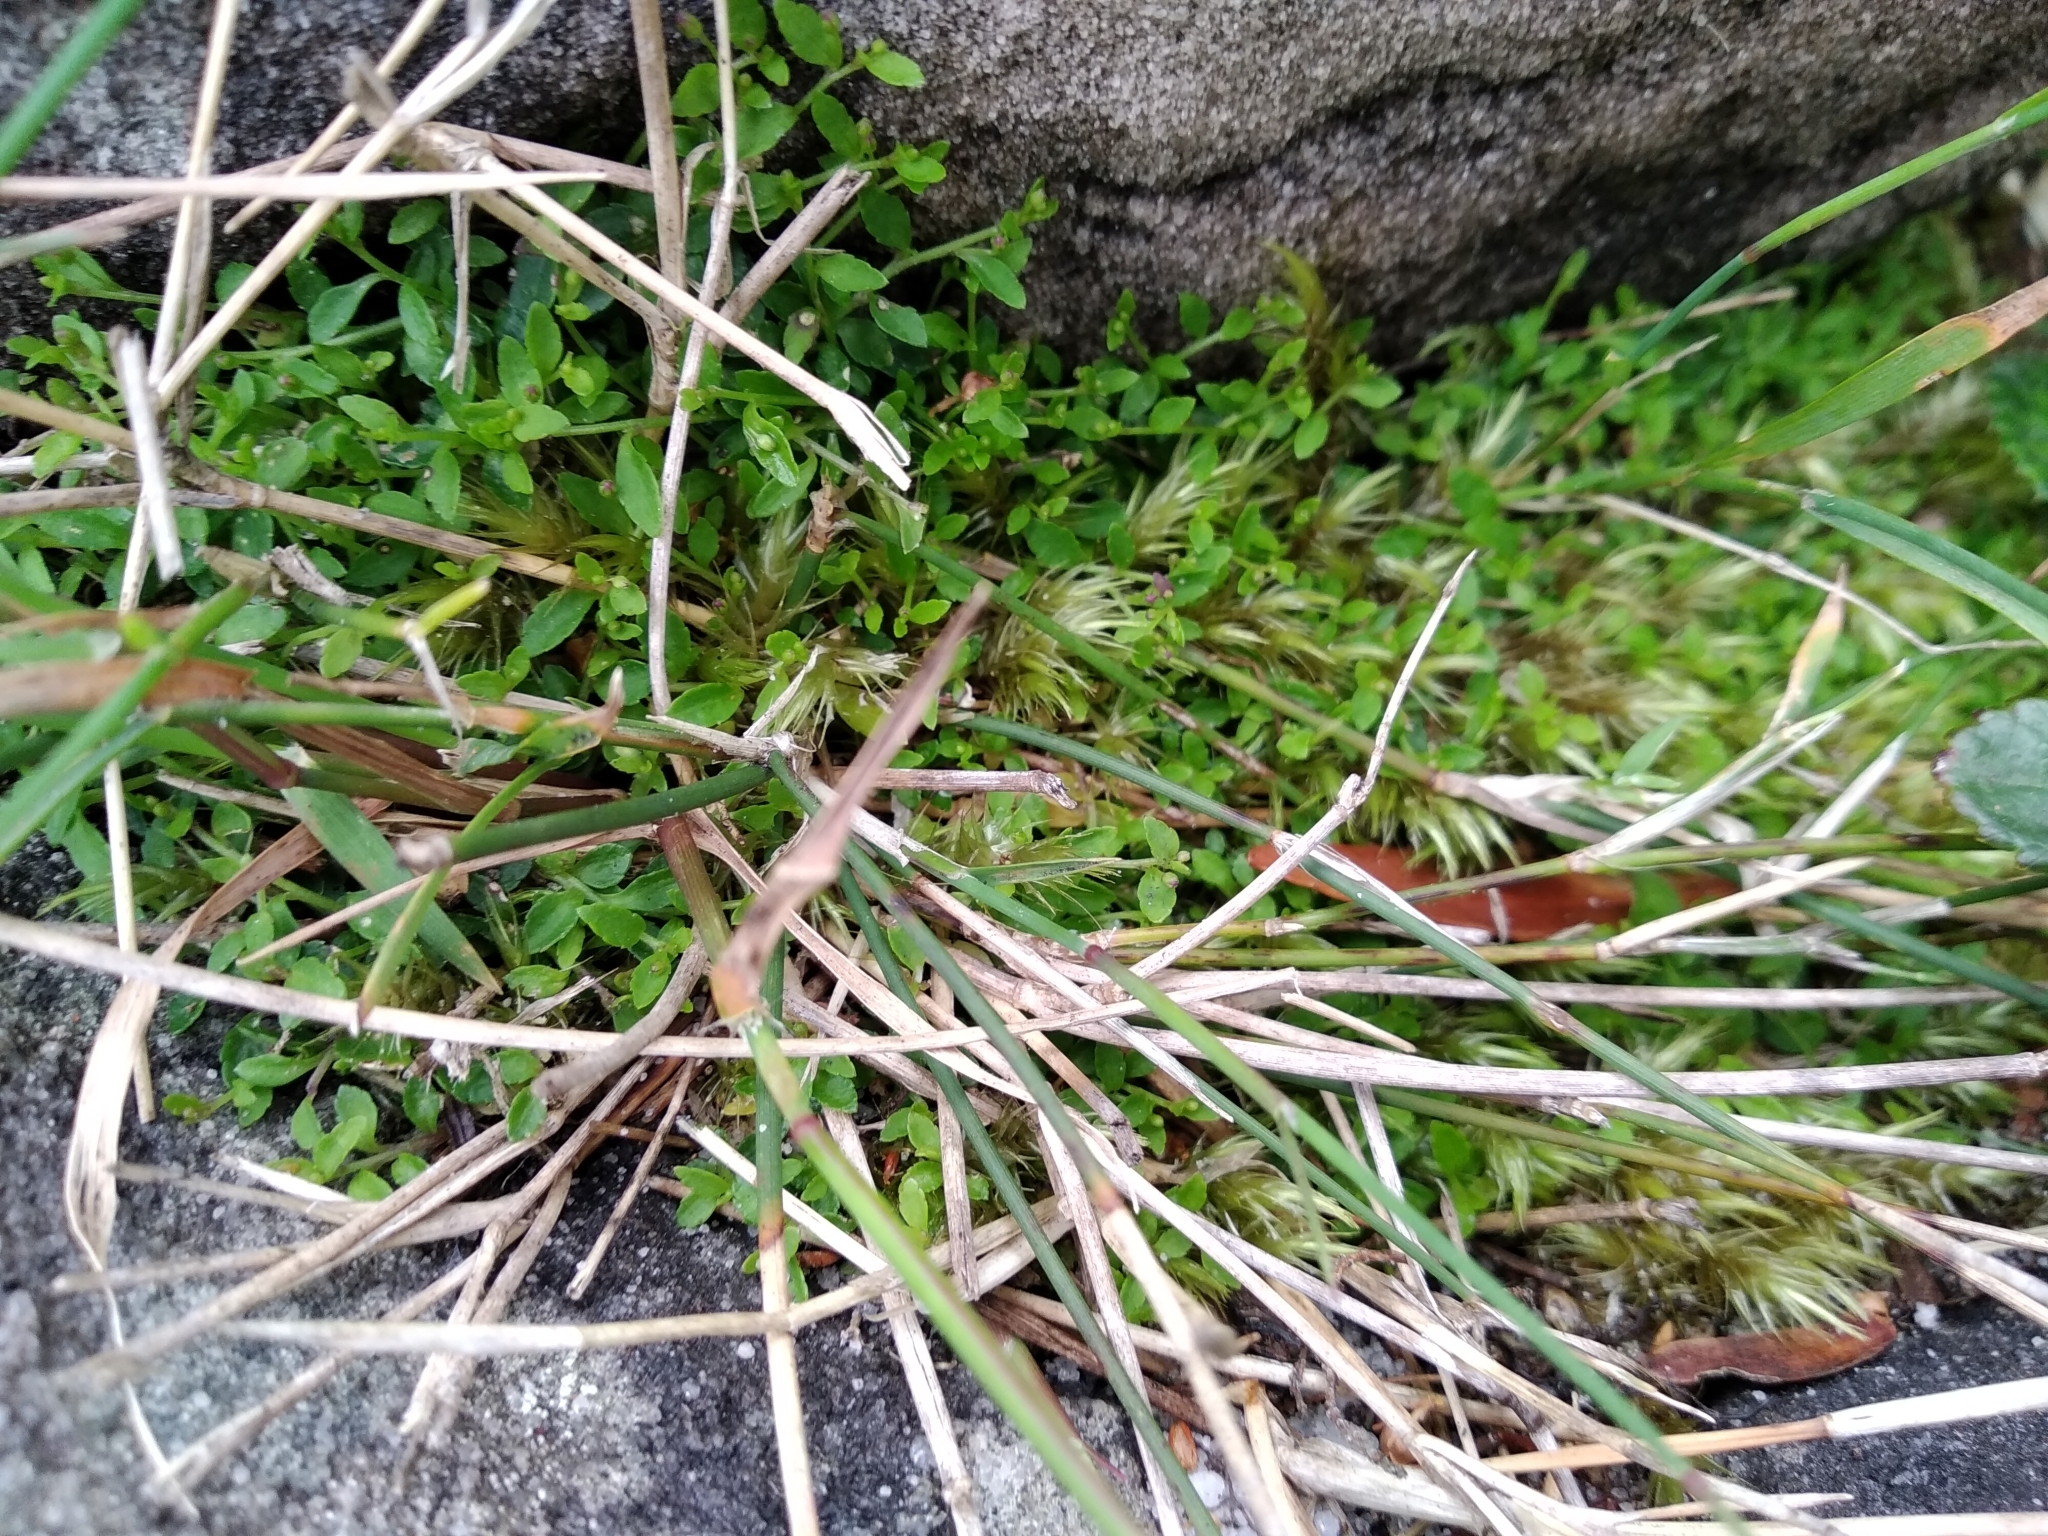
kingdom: Plantae
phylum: Tracheophyta
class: Magnoliopsida
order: Asterales
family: Campanulaceae
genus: Unigenes
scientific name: Unigenes humifusa
